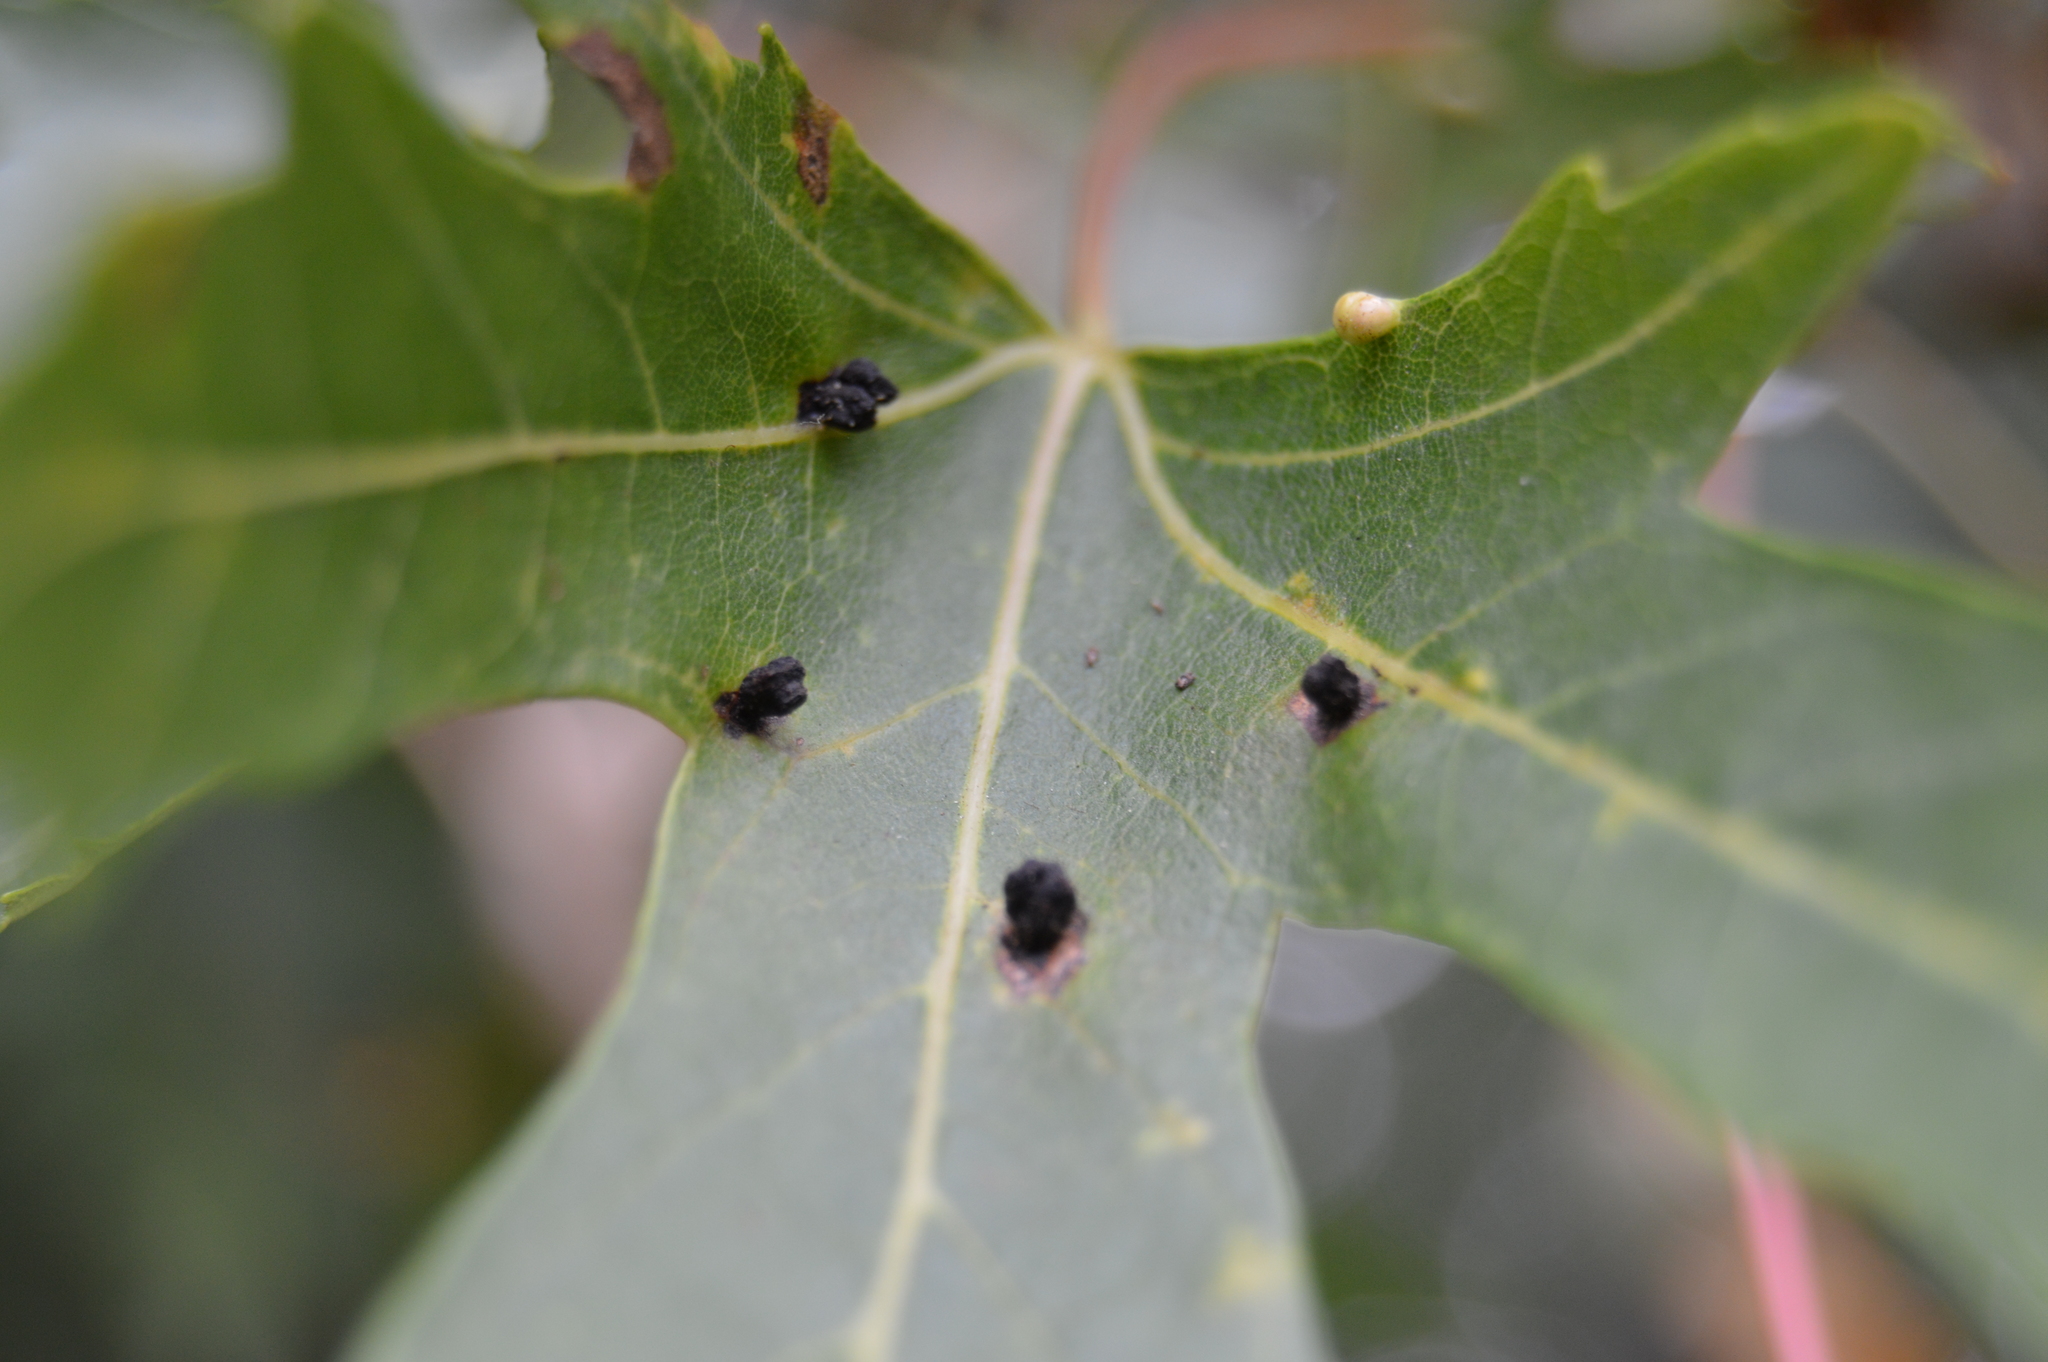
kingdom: Animalia
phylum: Arthropoda
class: Arachnida
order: Trombidiformes
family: Eriophyidae
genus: Vasates
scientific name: Vasates quadripedes
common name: Maple bladder gall mite
